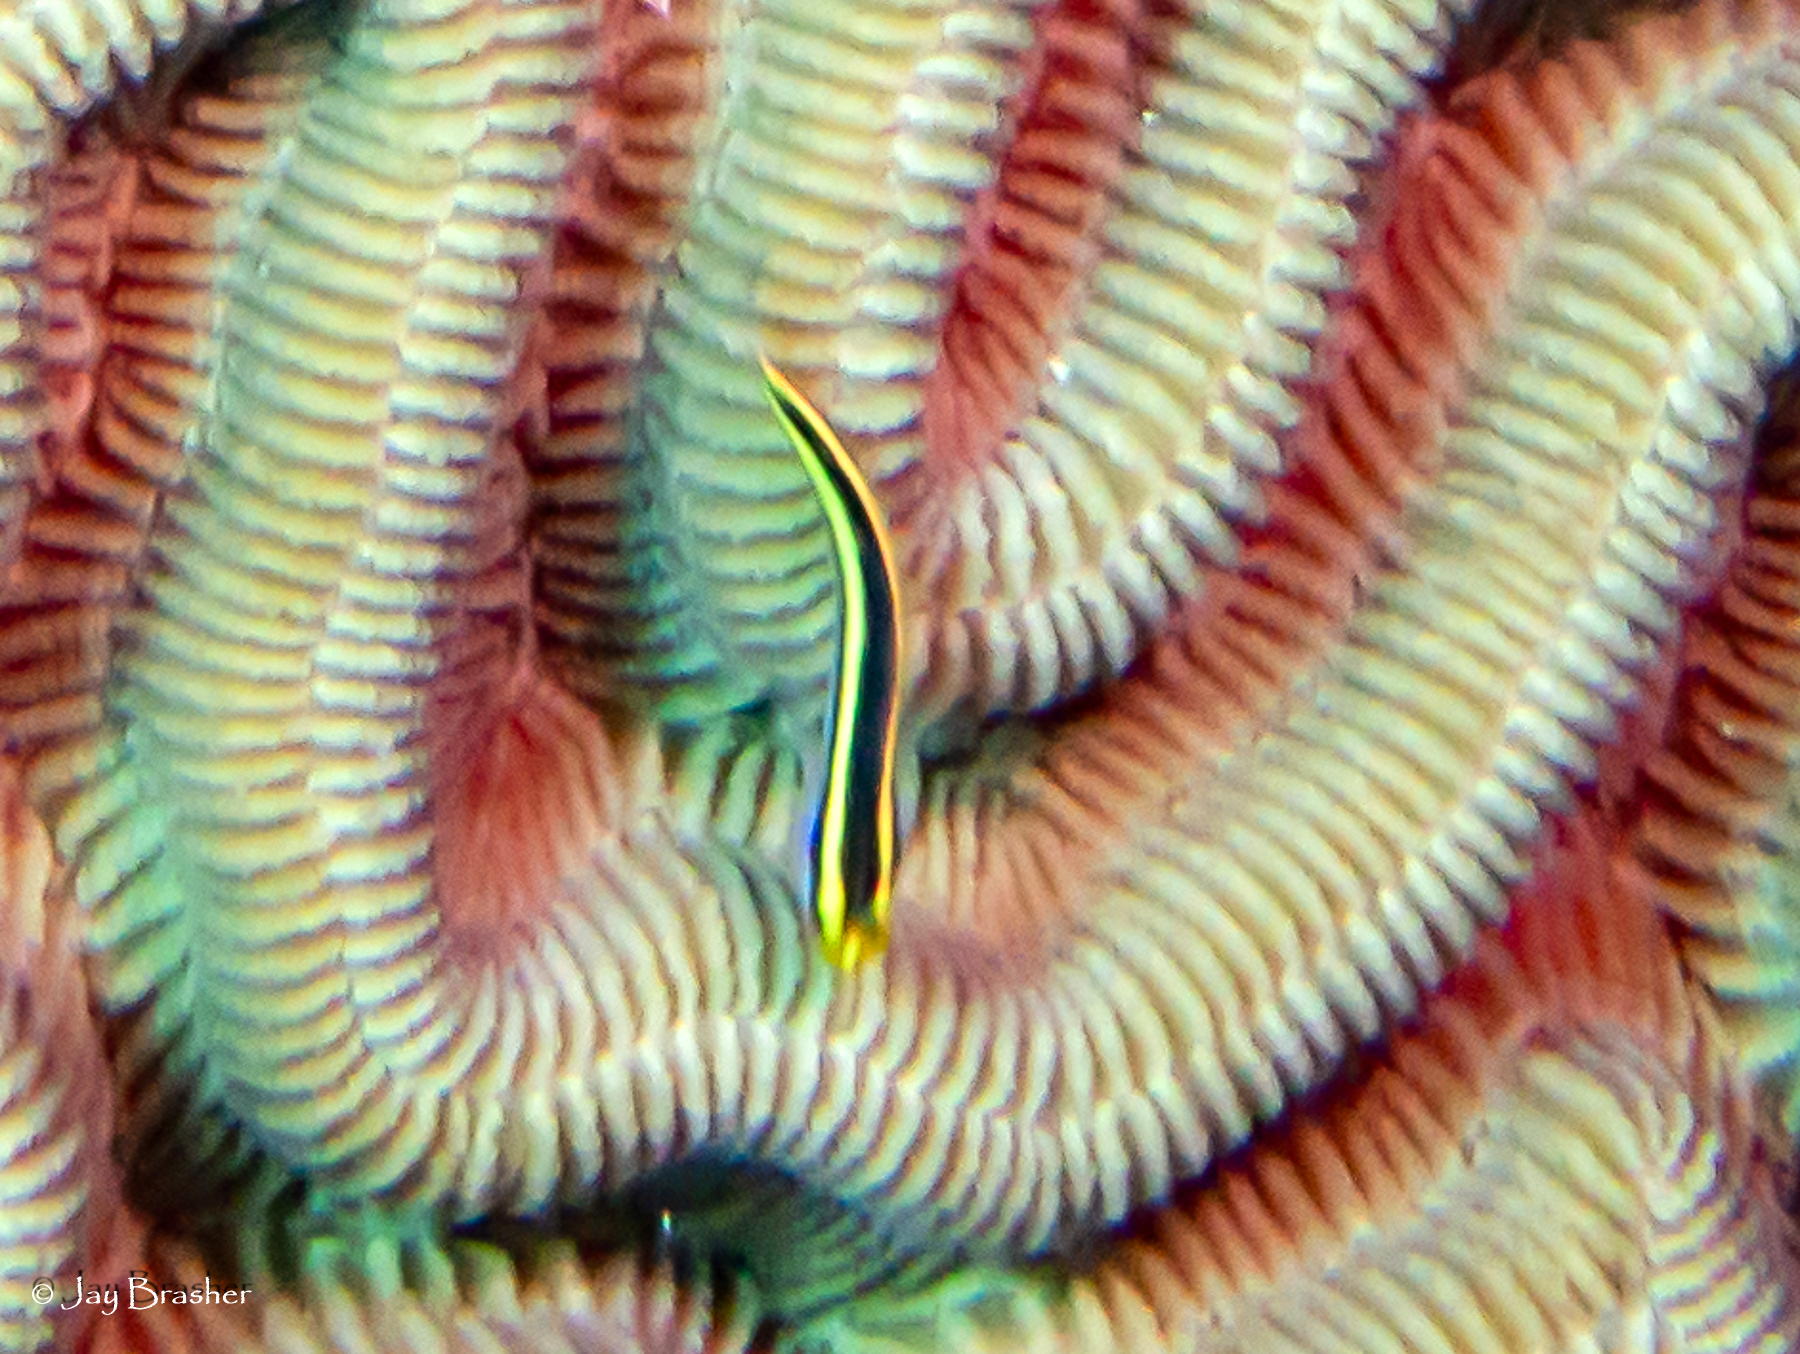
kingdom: Animalia
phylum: Chordata
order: Perciformes
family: Gobiidae
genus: Elacatinus
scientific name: Elacatinus randalli
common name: Yellownose goby
